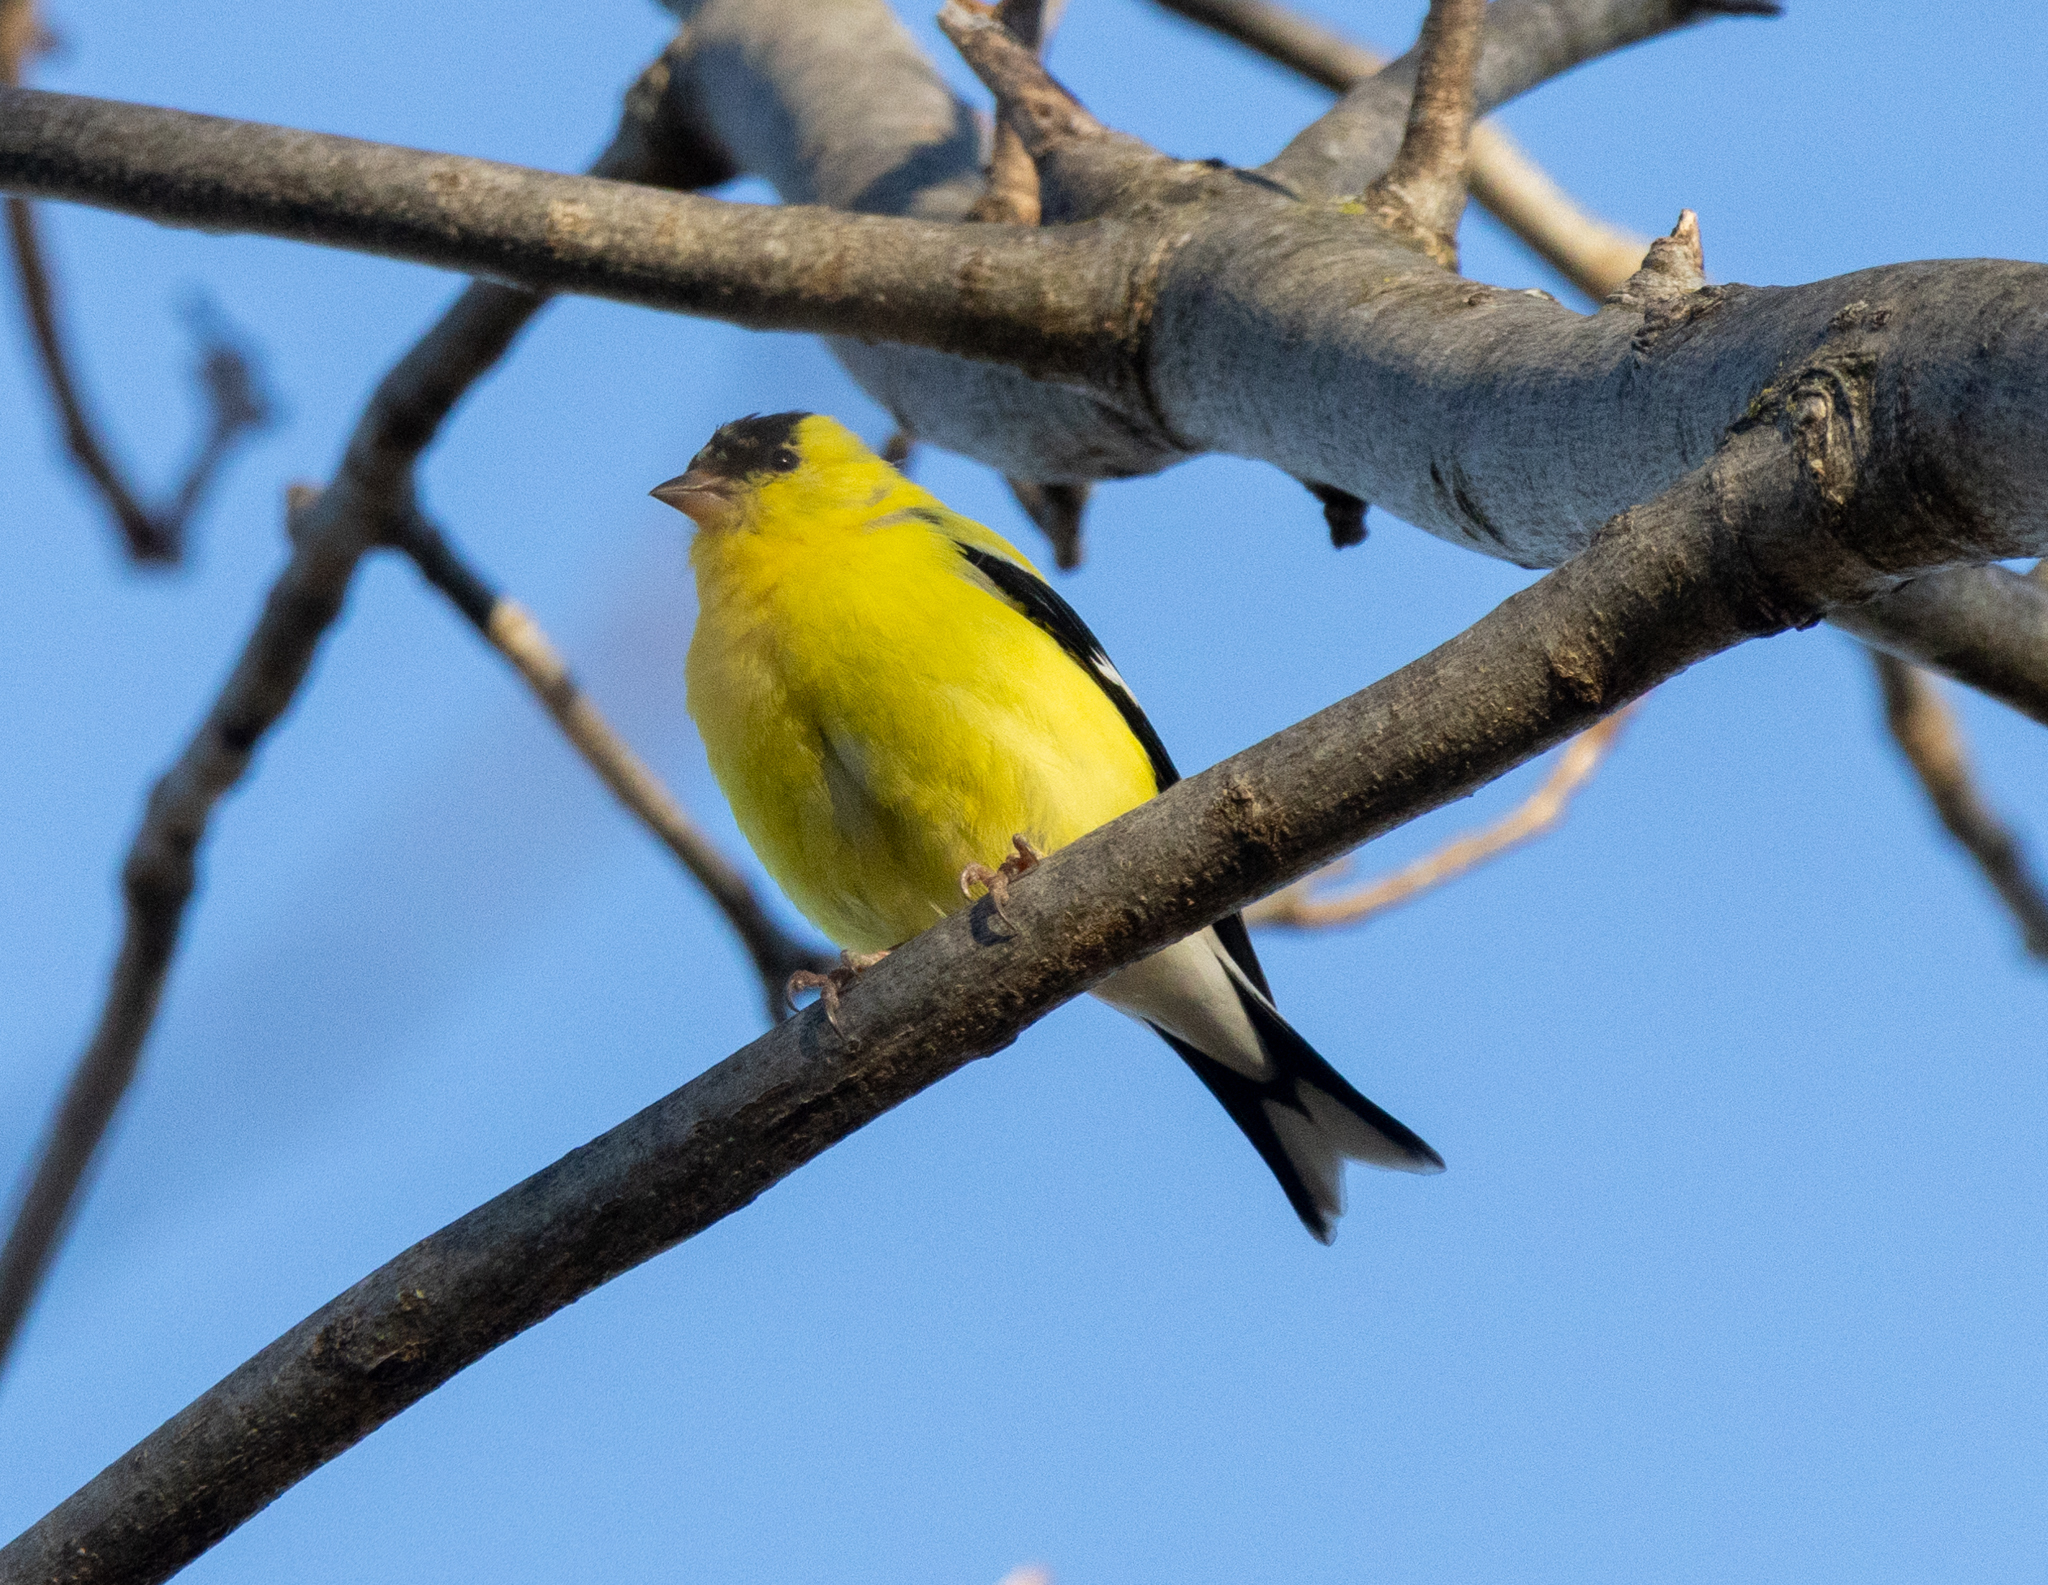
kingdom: Animalia
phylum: Chordata
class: Aves
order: Passeriformes
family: Fringillidae
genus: Spinus
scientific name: Spinus tristis
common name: American goldfinch
